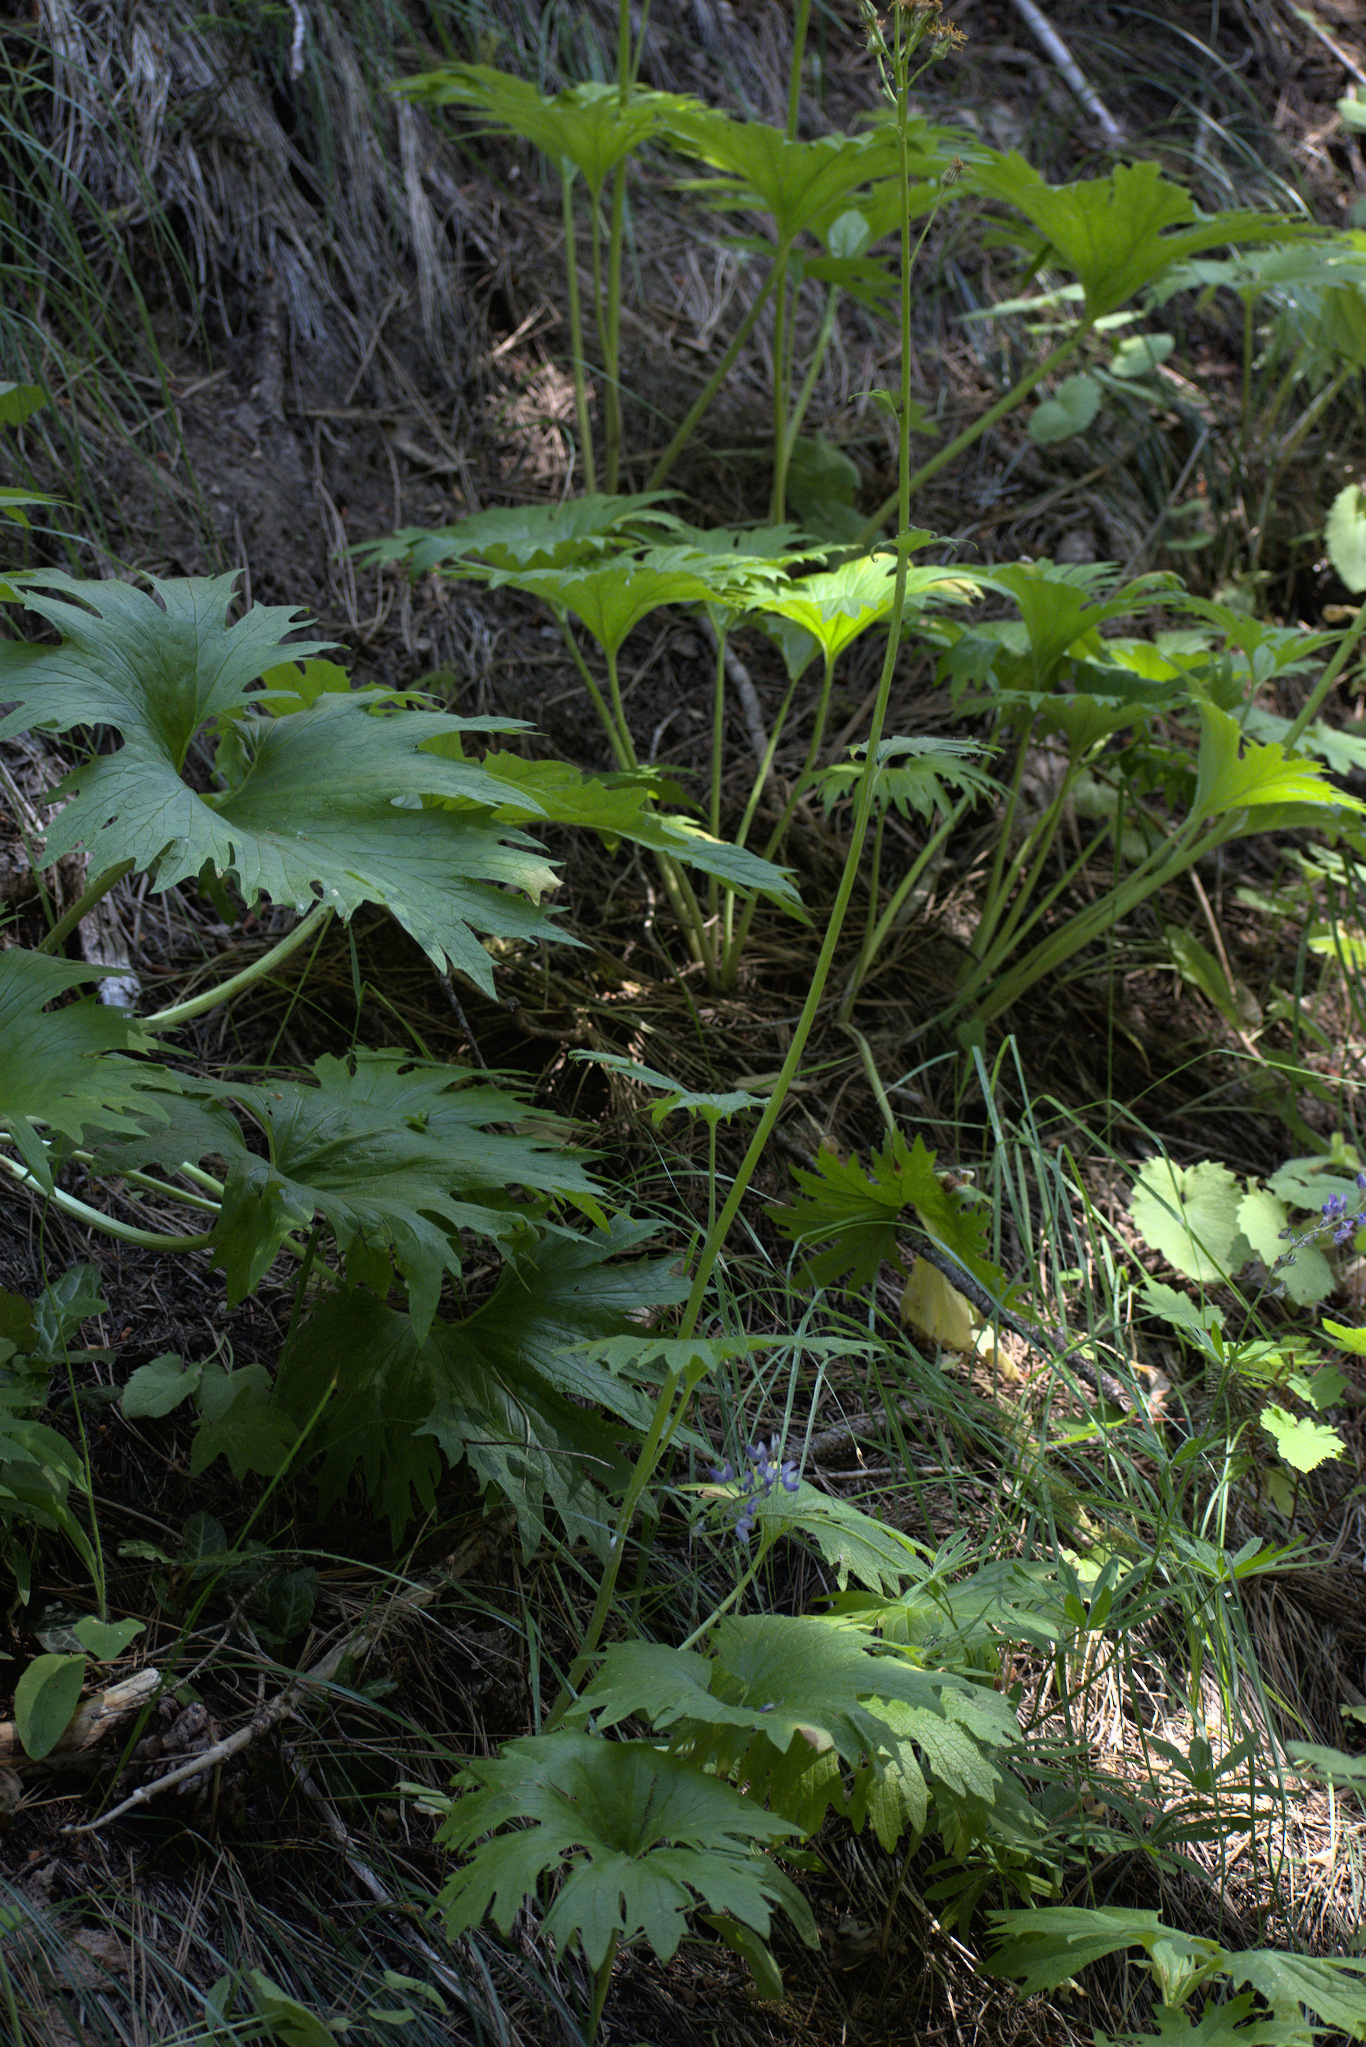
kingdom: Plantae
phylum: Tracheophyta
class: Magnoliopsida
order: Ranunculales
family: Ranunculaceae
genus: Trautvetteria
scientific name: Trautvetteria carolinensis
